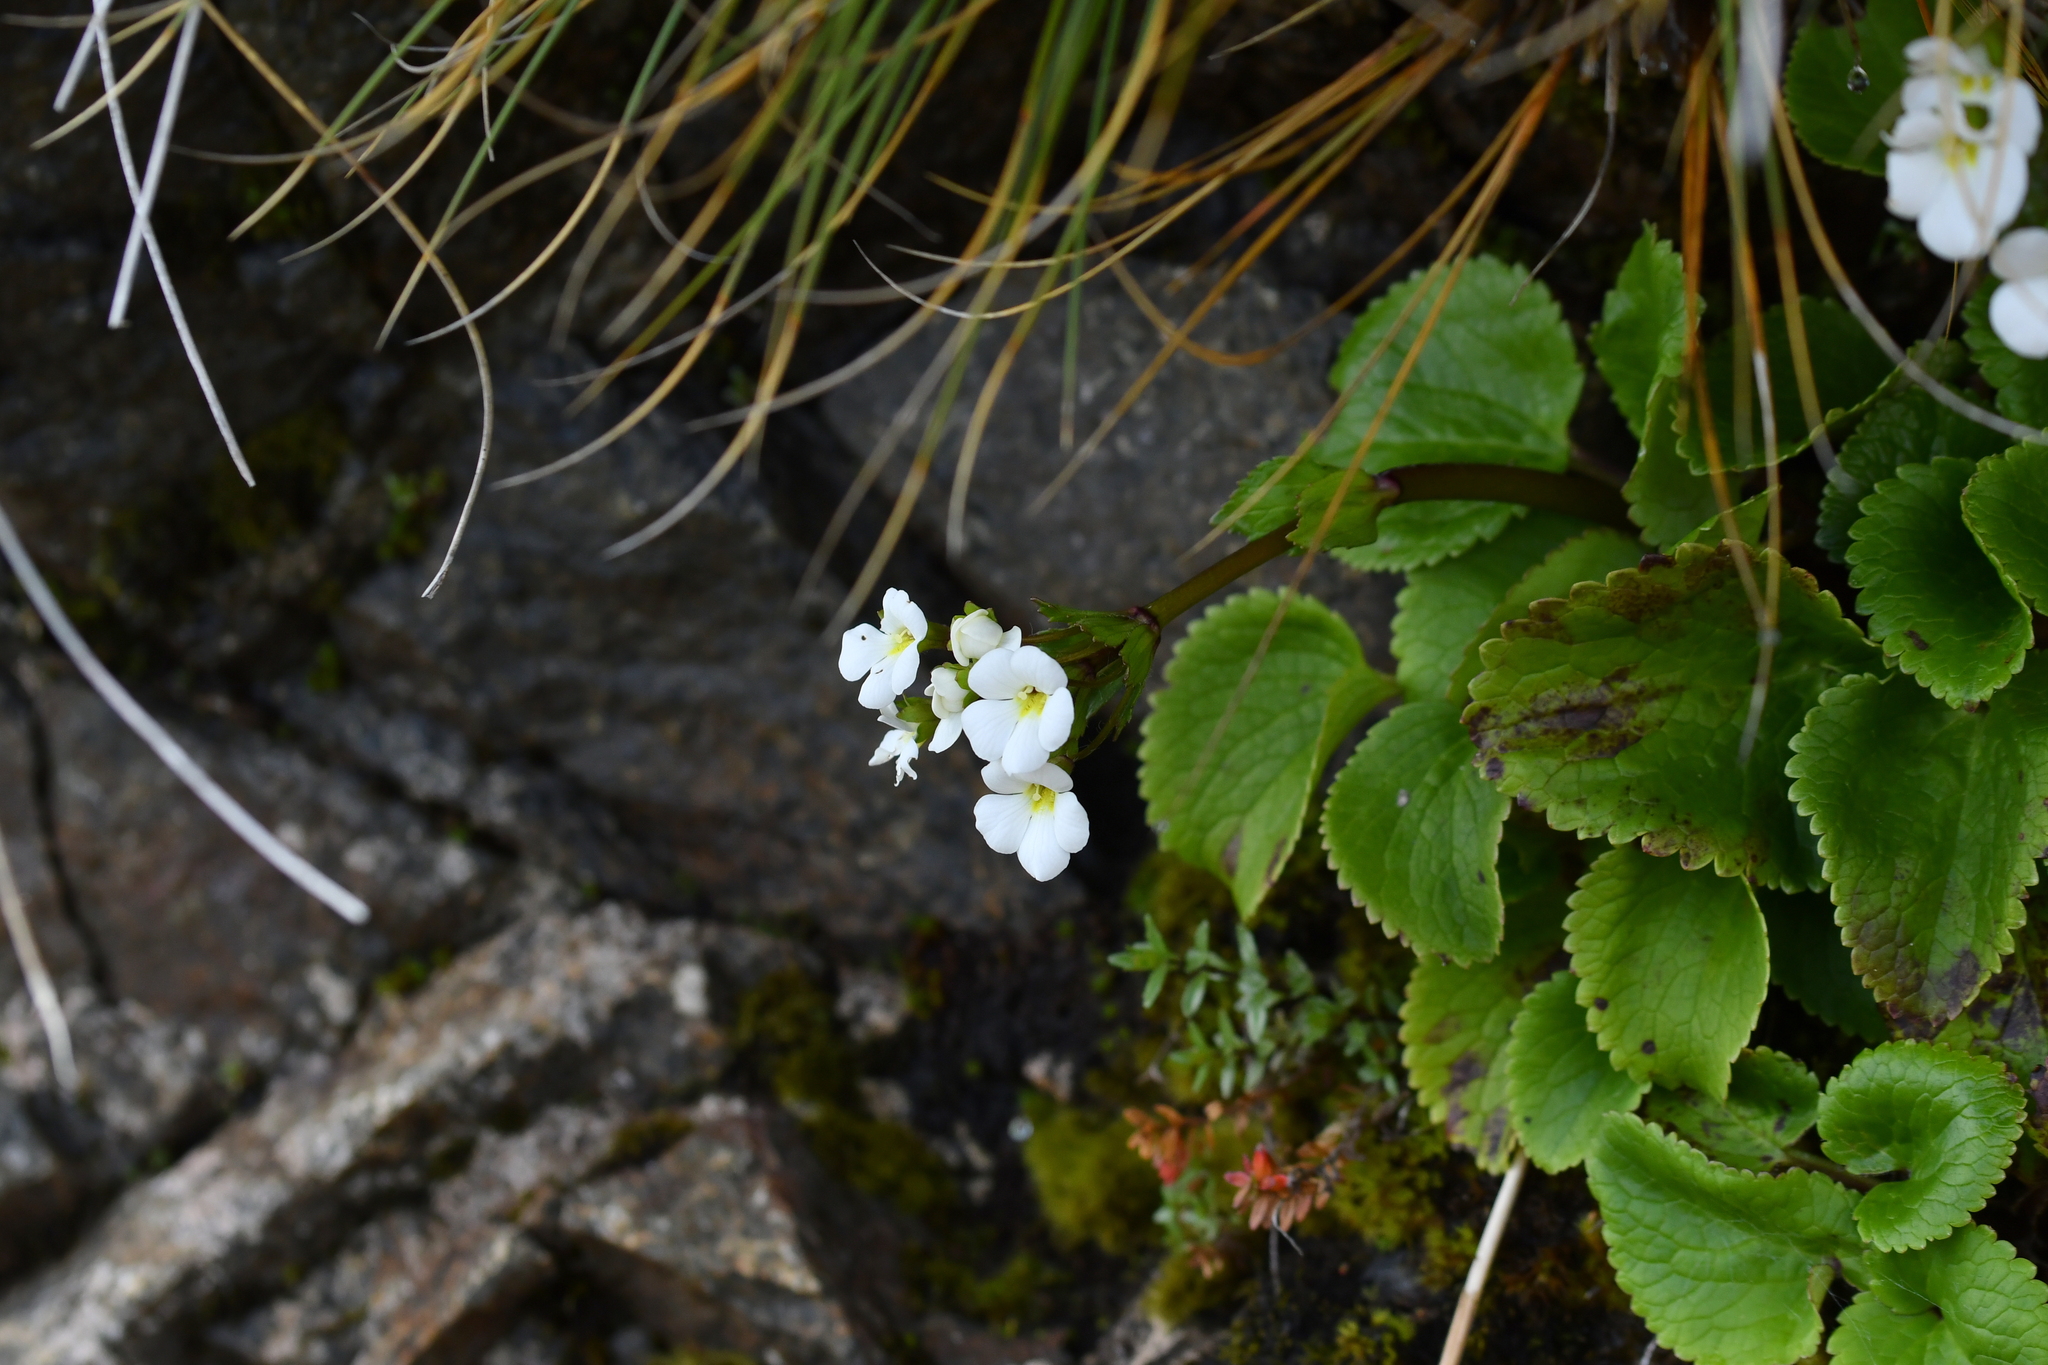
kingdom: Plantae
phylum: Tracheophyta
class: Magnoliopsida
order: Lamiales
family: Plantaginaceae
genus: Ourisia
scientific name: Ourisia macrocarpa
